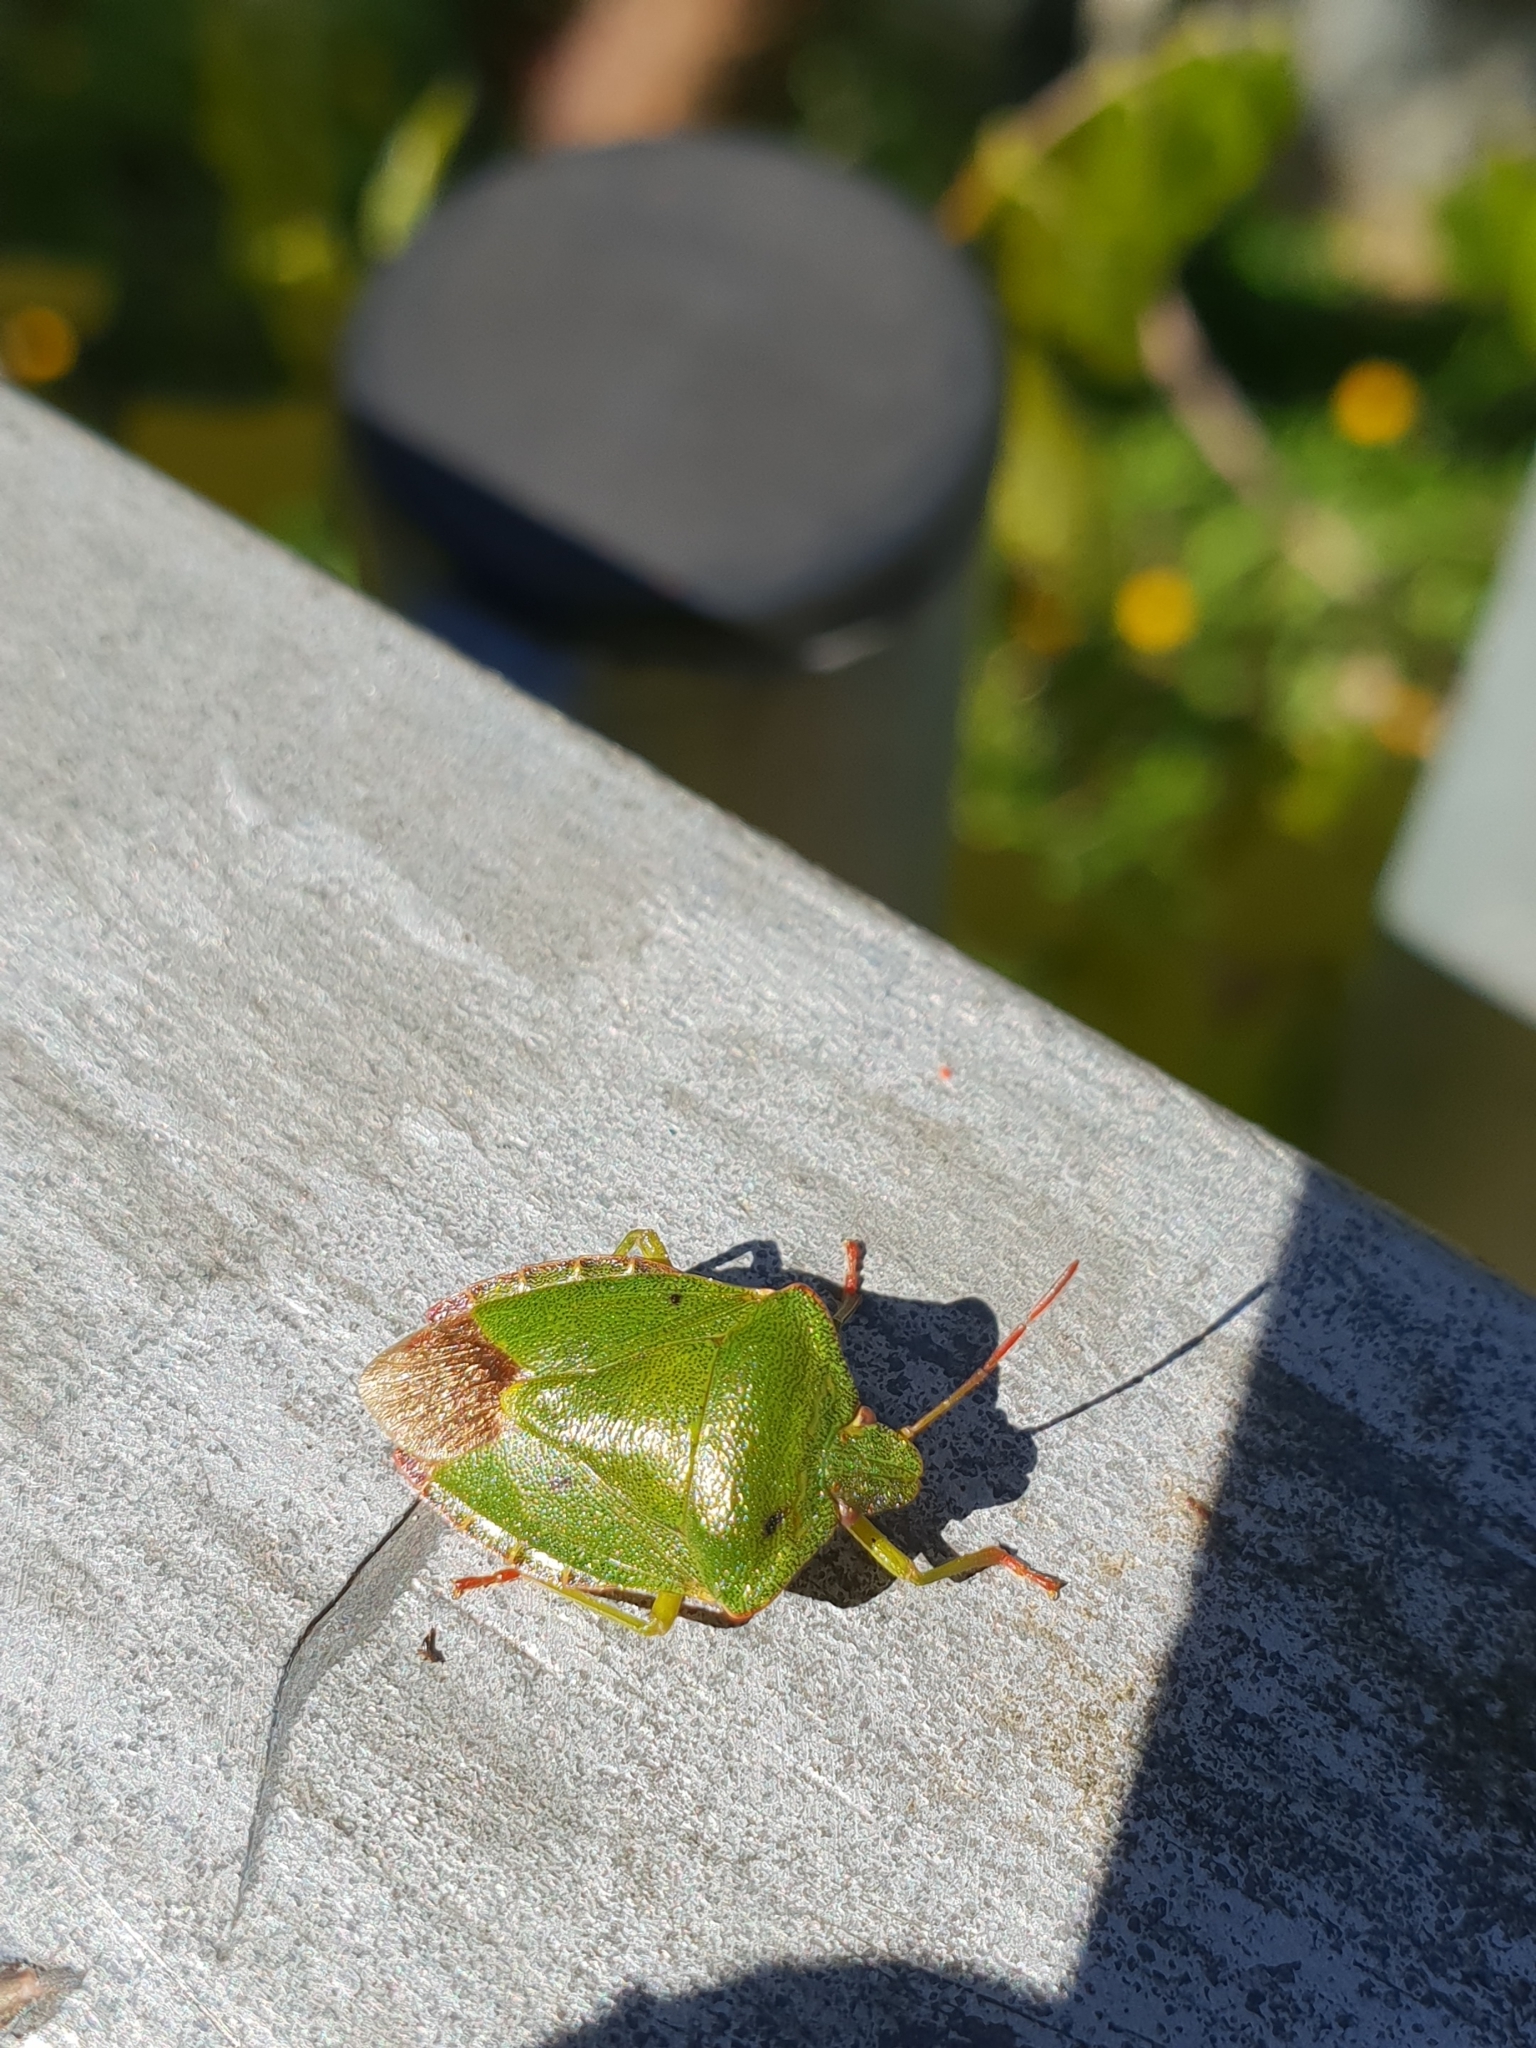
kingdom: Animalia
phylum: Arthropoda
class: Insecta
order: Hemiptera
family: Pentatomidae
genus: Palomena
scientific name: Palomena prasina
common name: Green shieldbug
